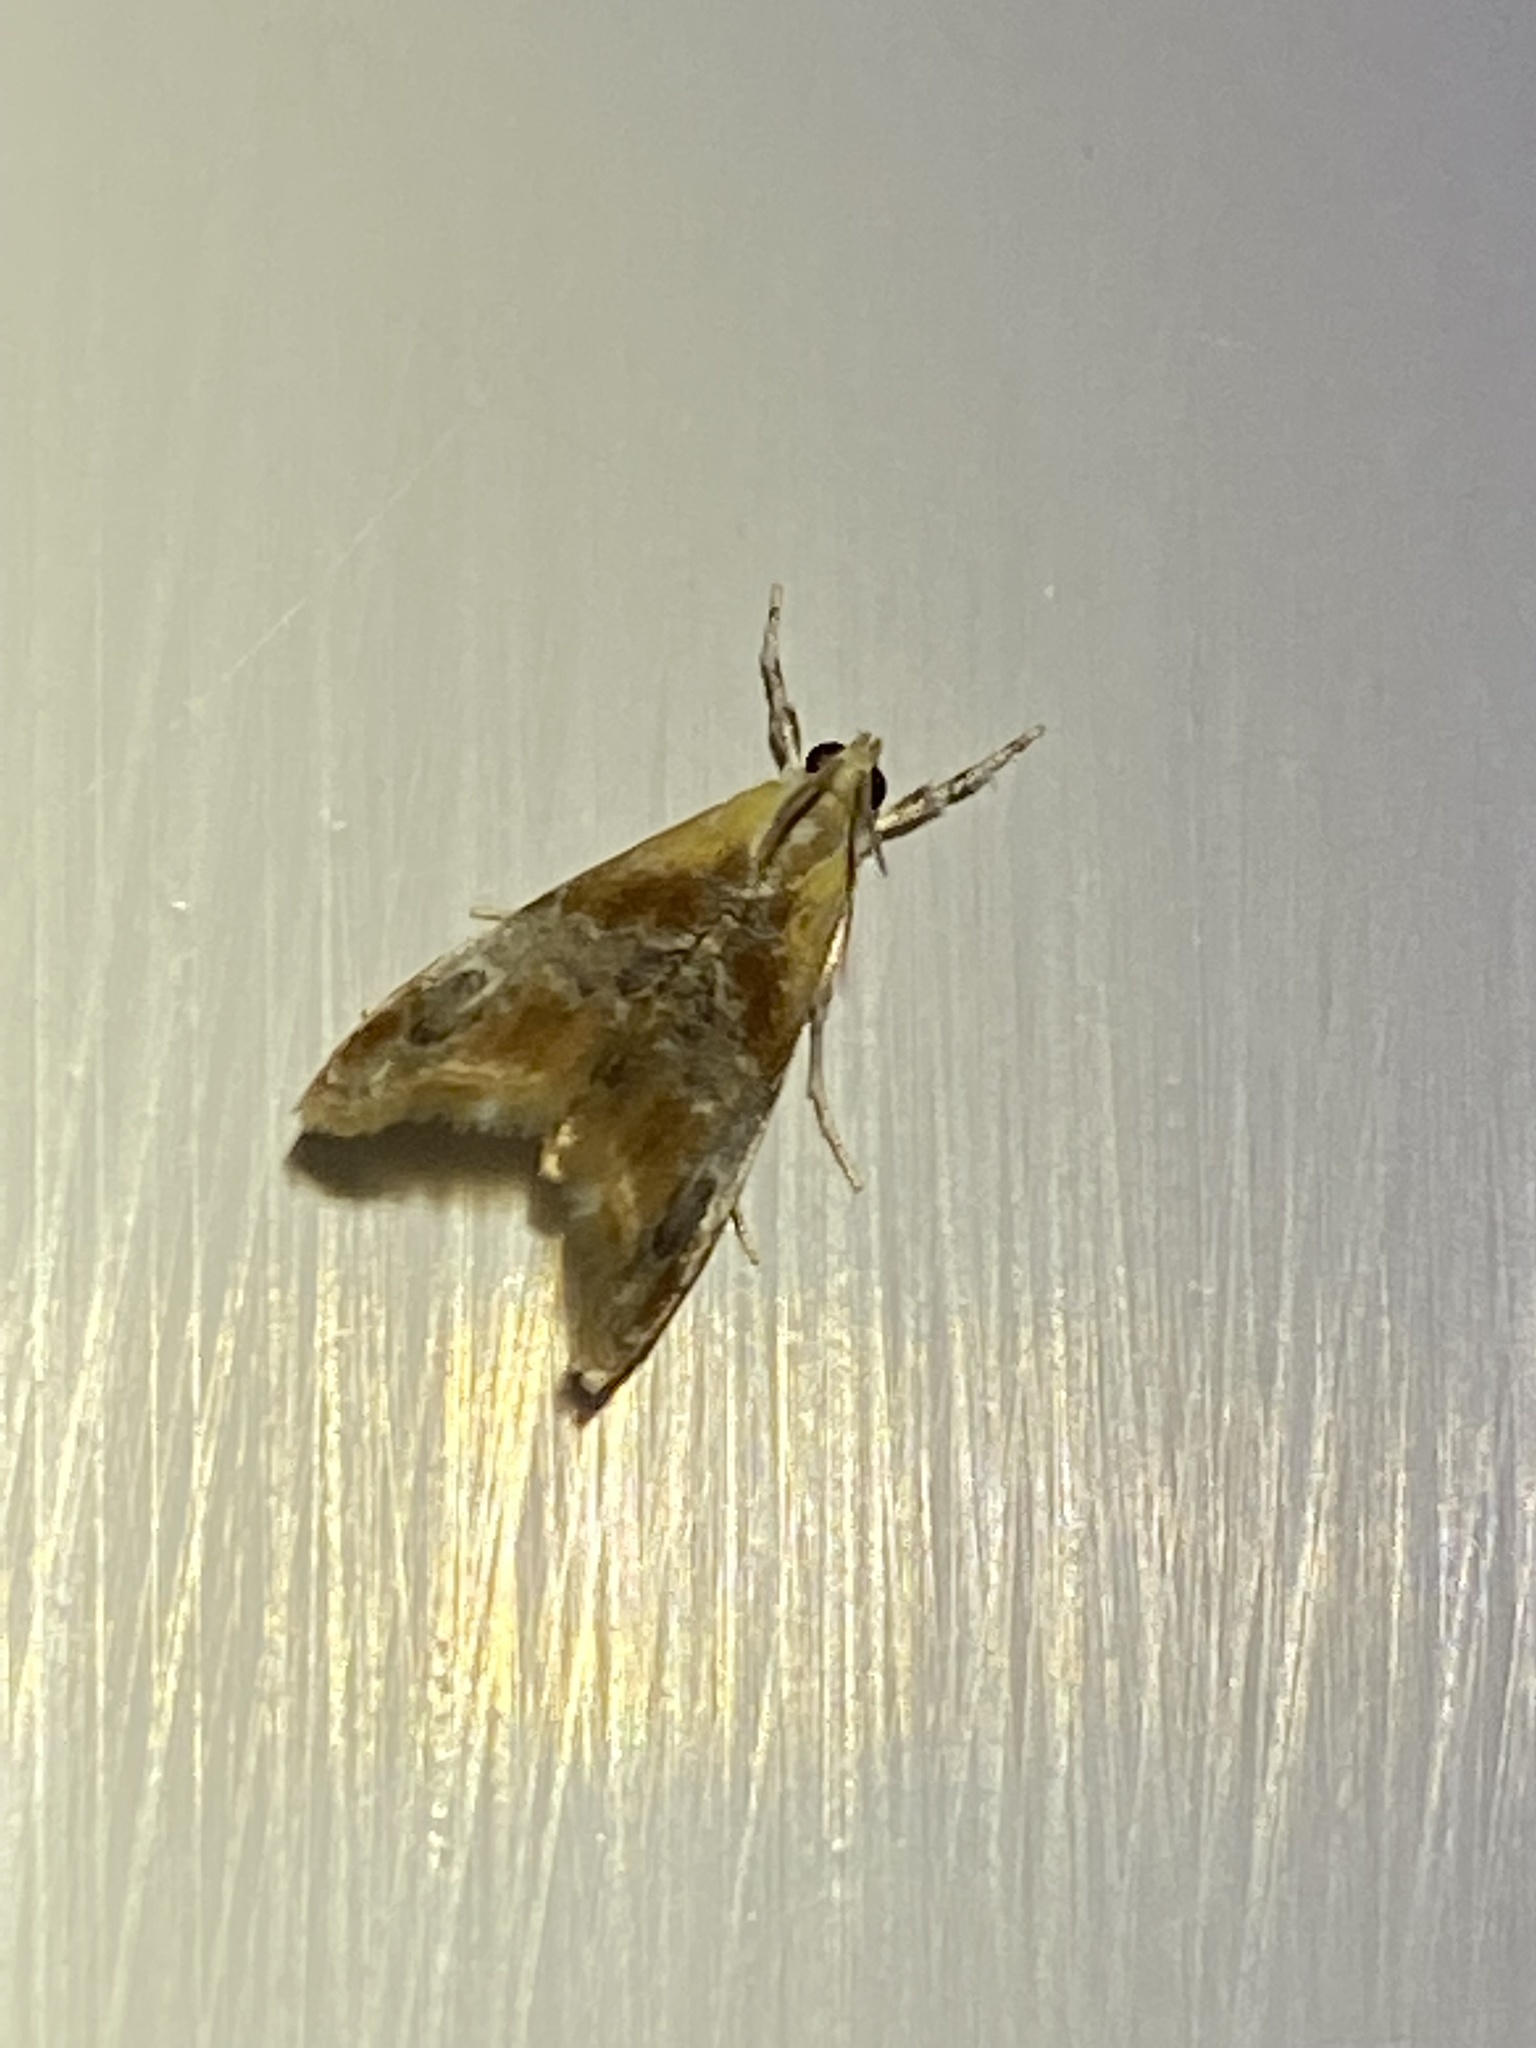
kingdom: Animalia
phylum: Arthropoda
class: Insecta
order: Lepidoptera
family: Crambidae
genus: Dicymolomia
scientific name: Dicymolomia julianalis
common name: Julia's dicymolomia moth
